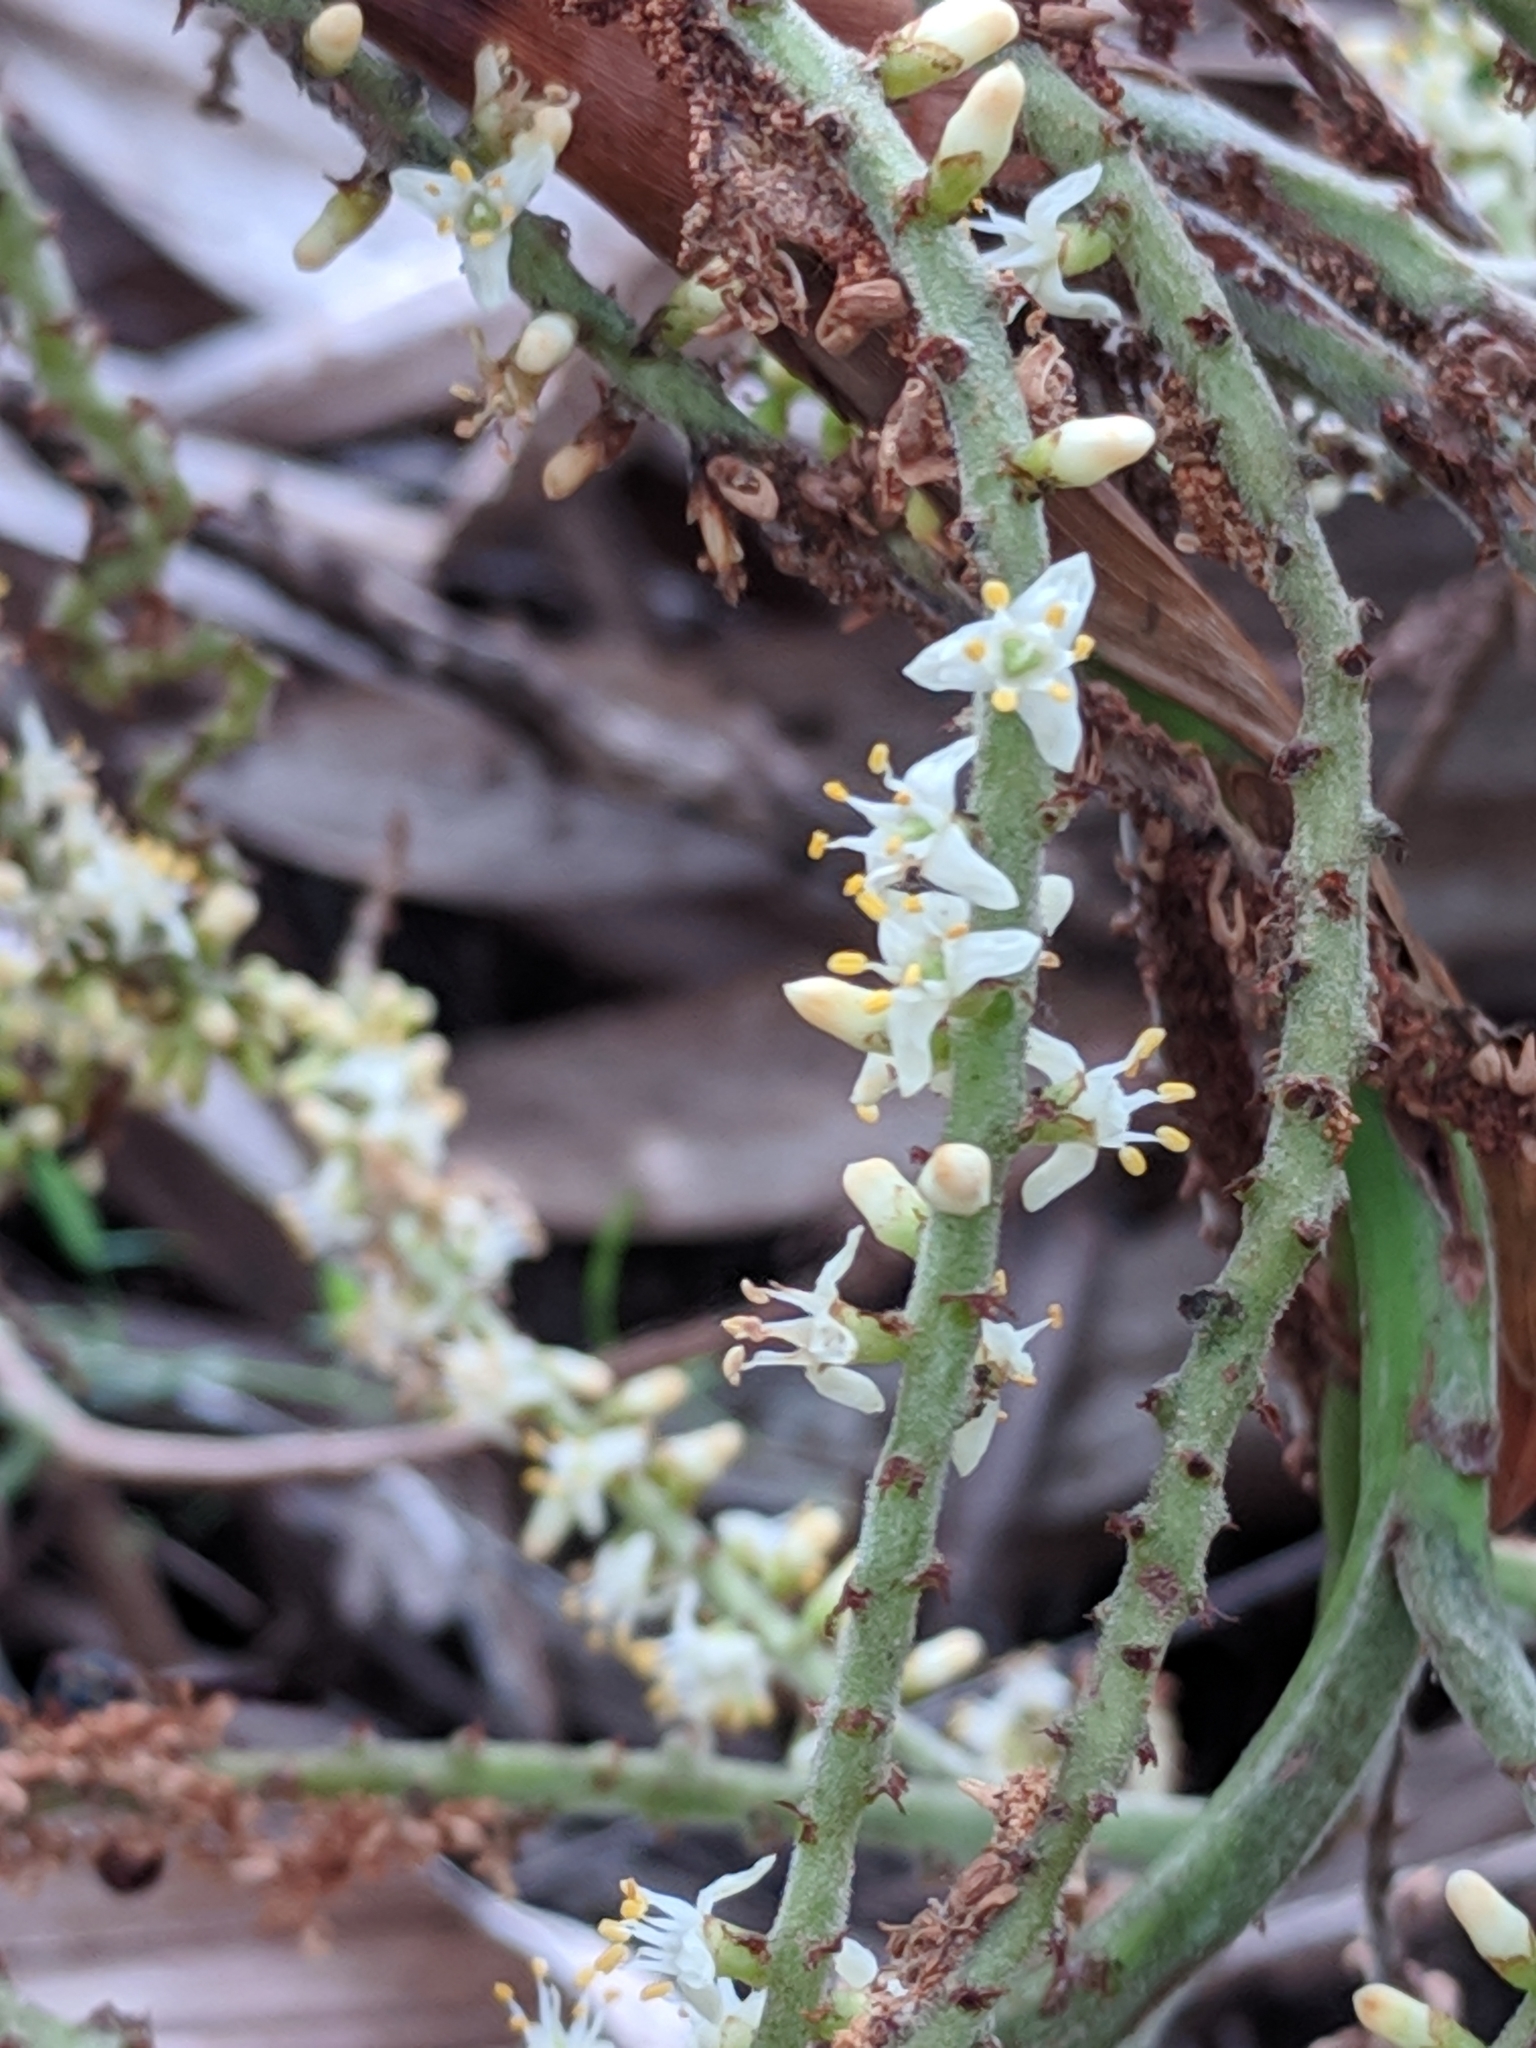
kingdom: Plantae
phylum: Tracheophyta
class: Liliopsida
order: Arecales
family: Arecaceae
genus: Serenoa
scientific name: Serenoa repens
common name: Saw-palmetto
